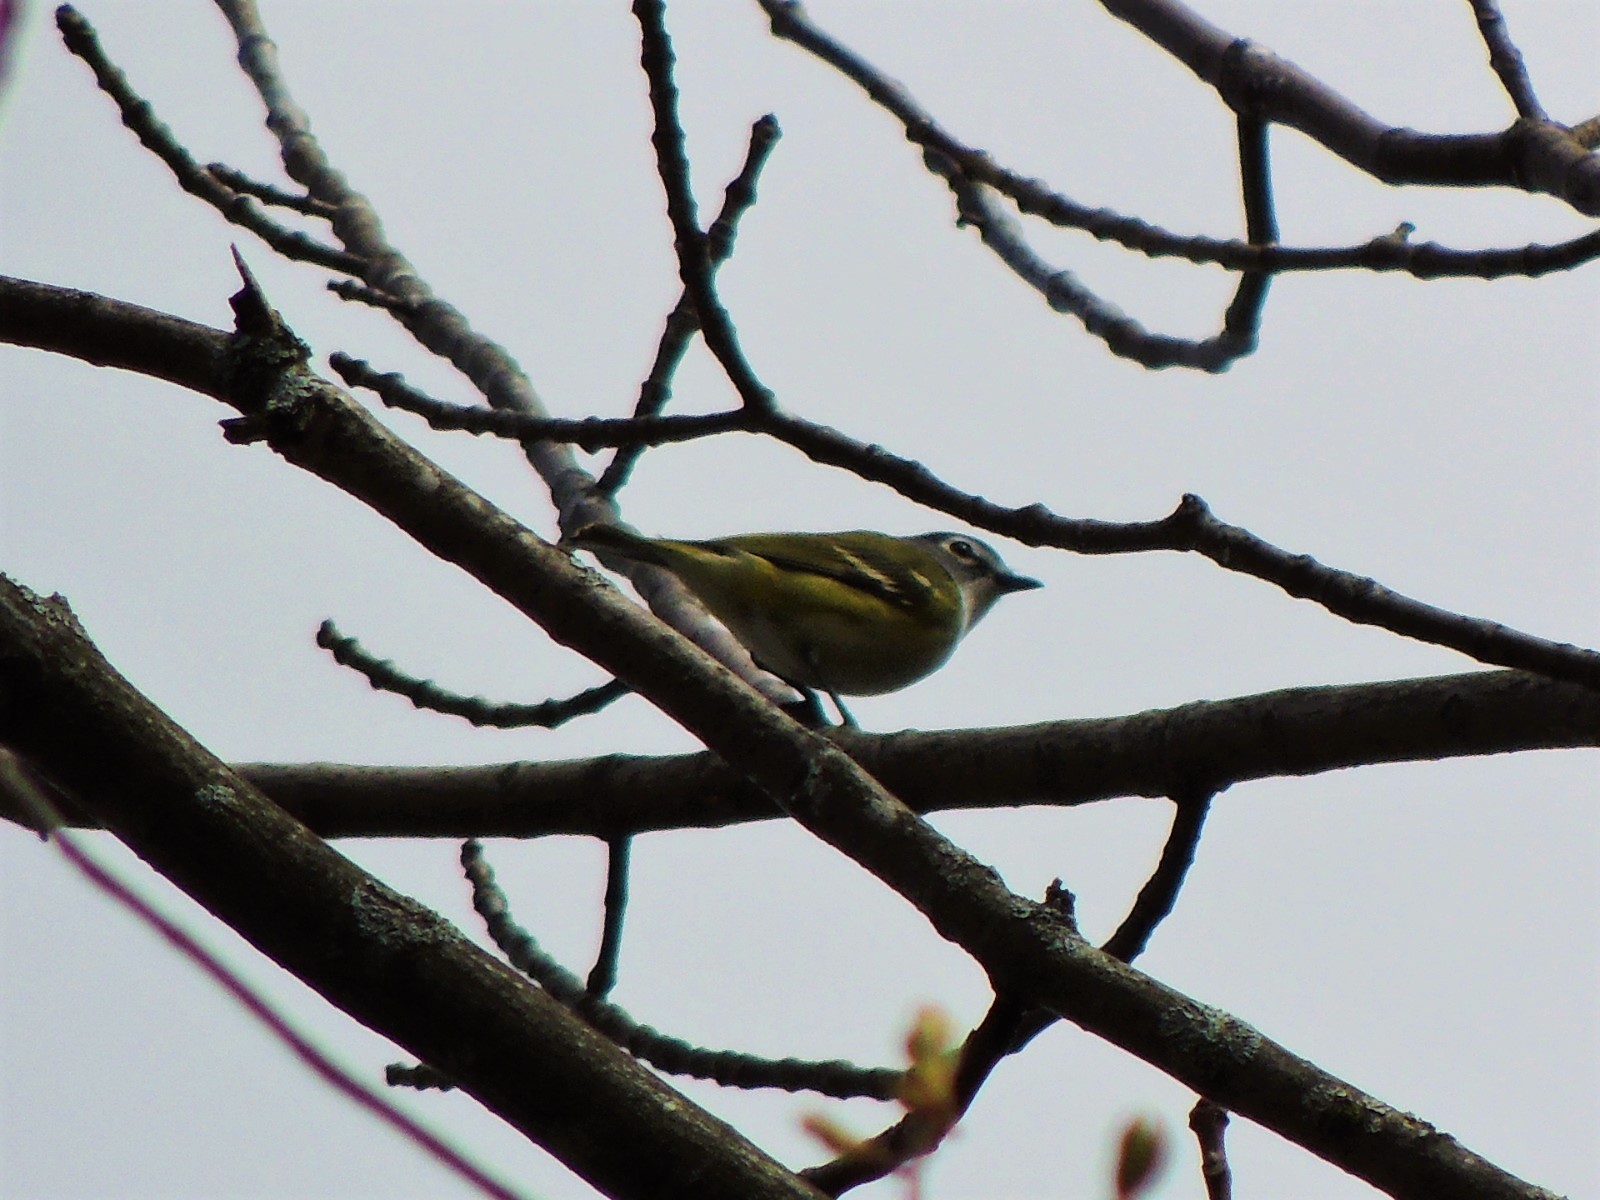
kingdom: Animalia
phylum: Chordata
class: Aves
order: Passeriformes
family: Vireonidae
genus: Vireo
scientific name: Vireo solitarius
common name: Blue-headed vireo
